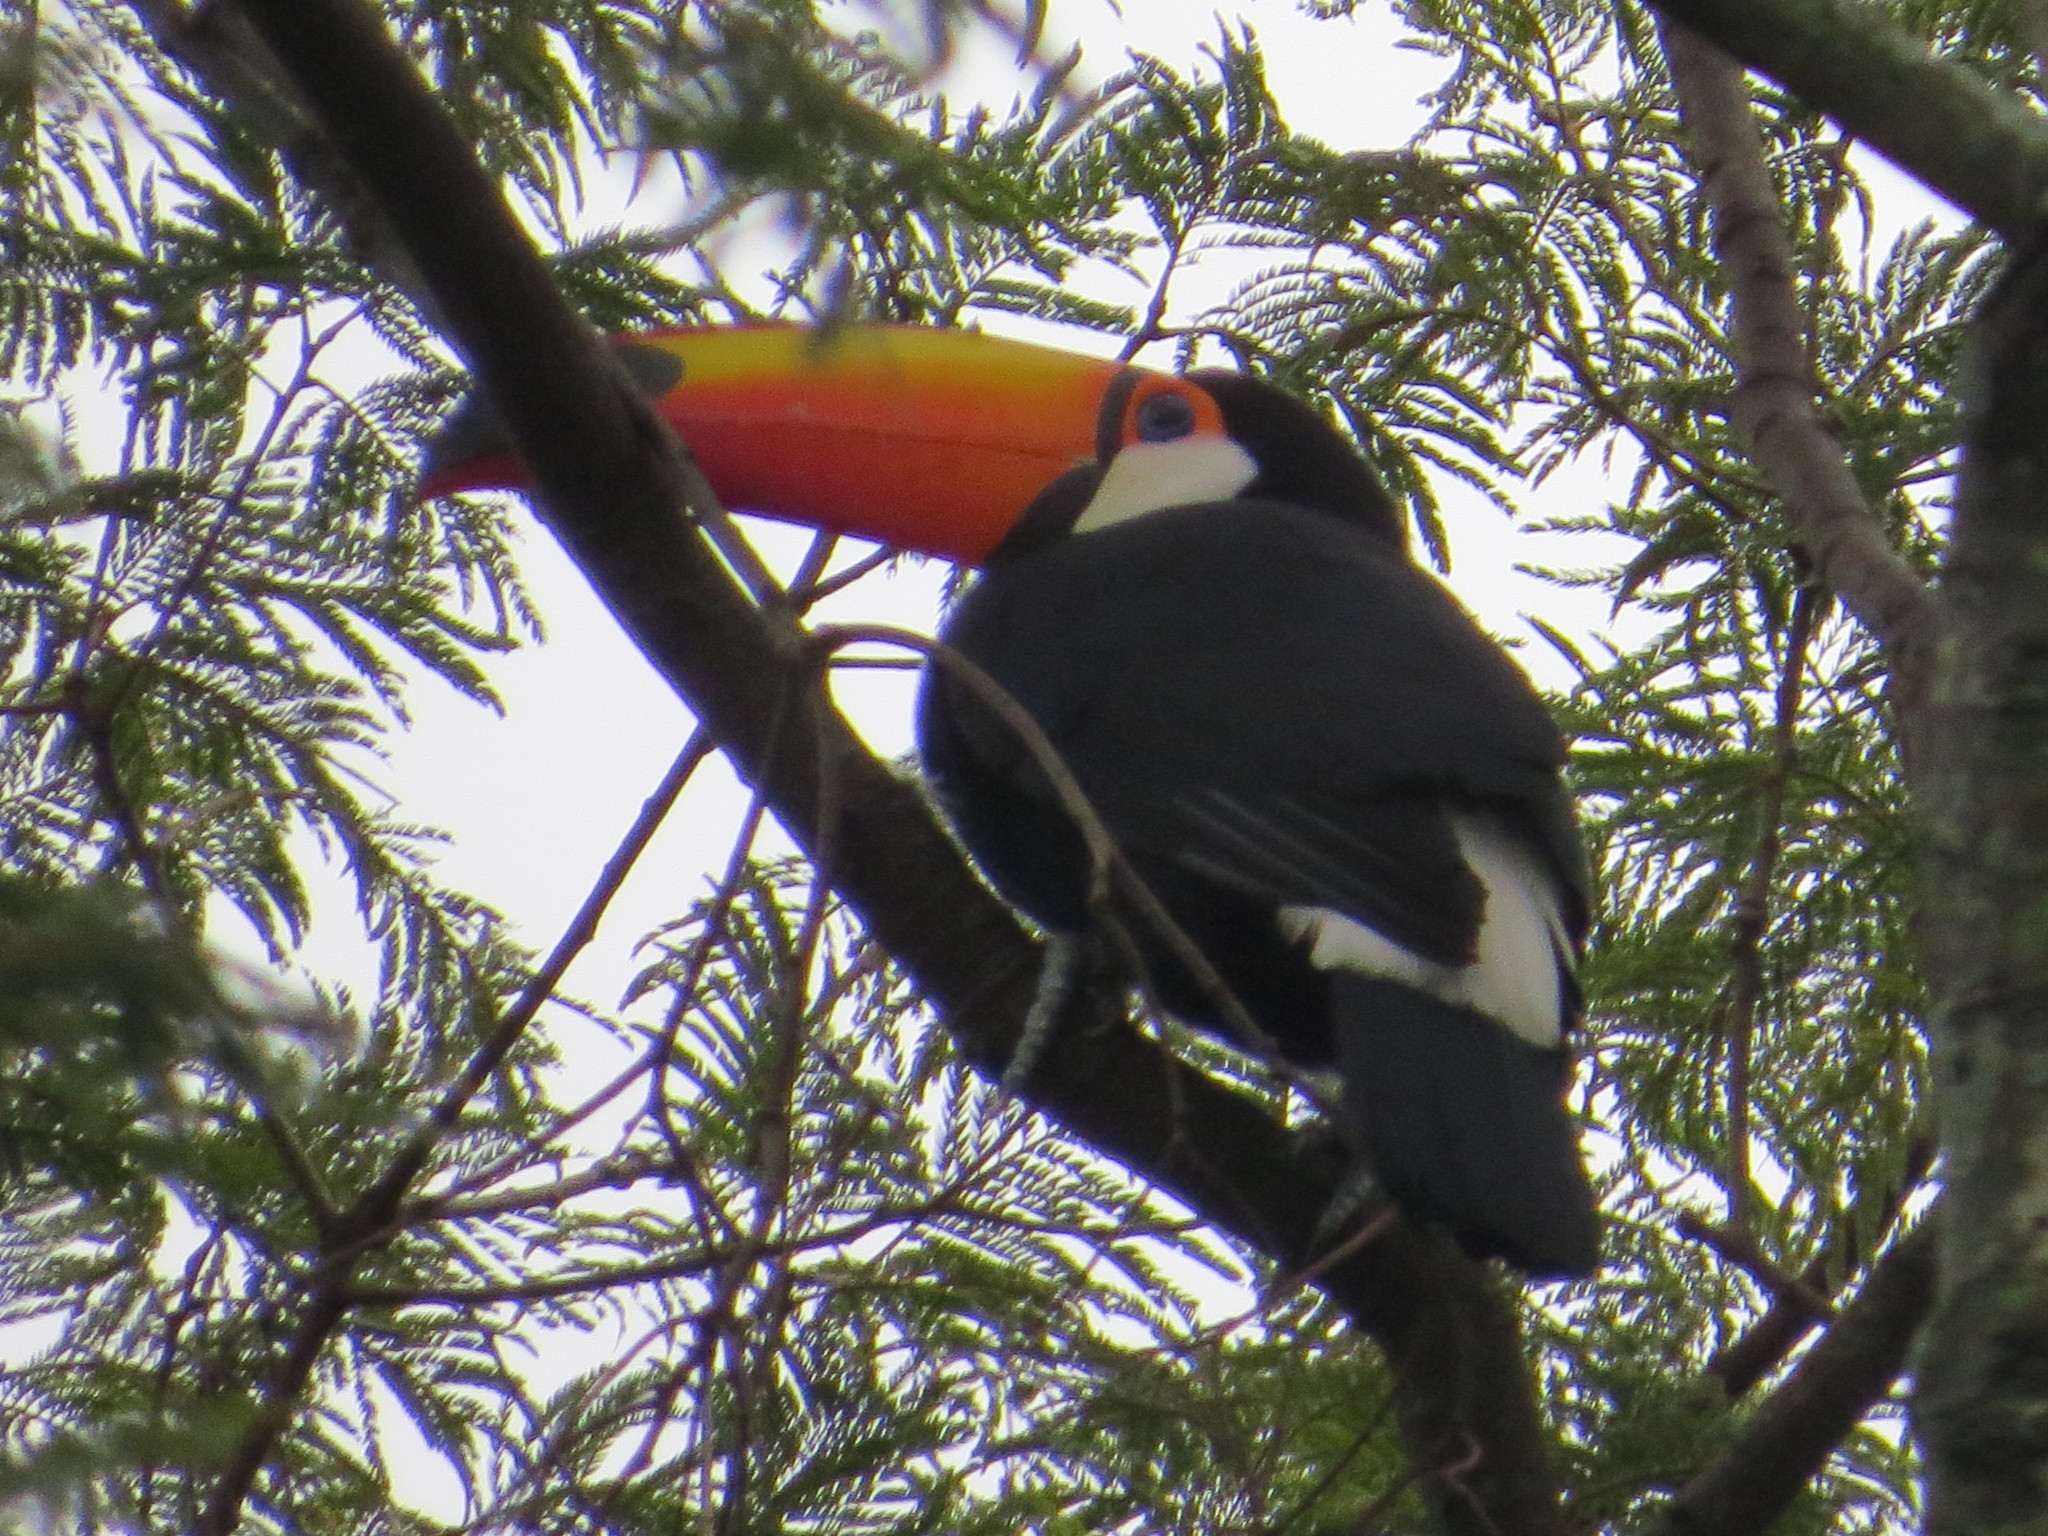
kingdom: Animalia
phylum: Chordata
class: Aves
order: Piciformes
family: Ramphastidae
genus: Ramphastos
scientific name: Ramphastos toco
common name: Toco toucan
